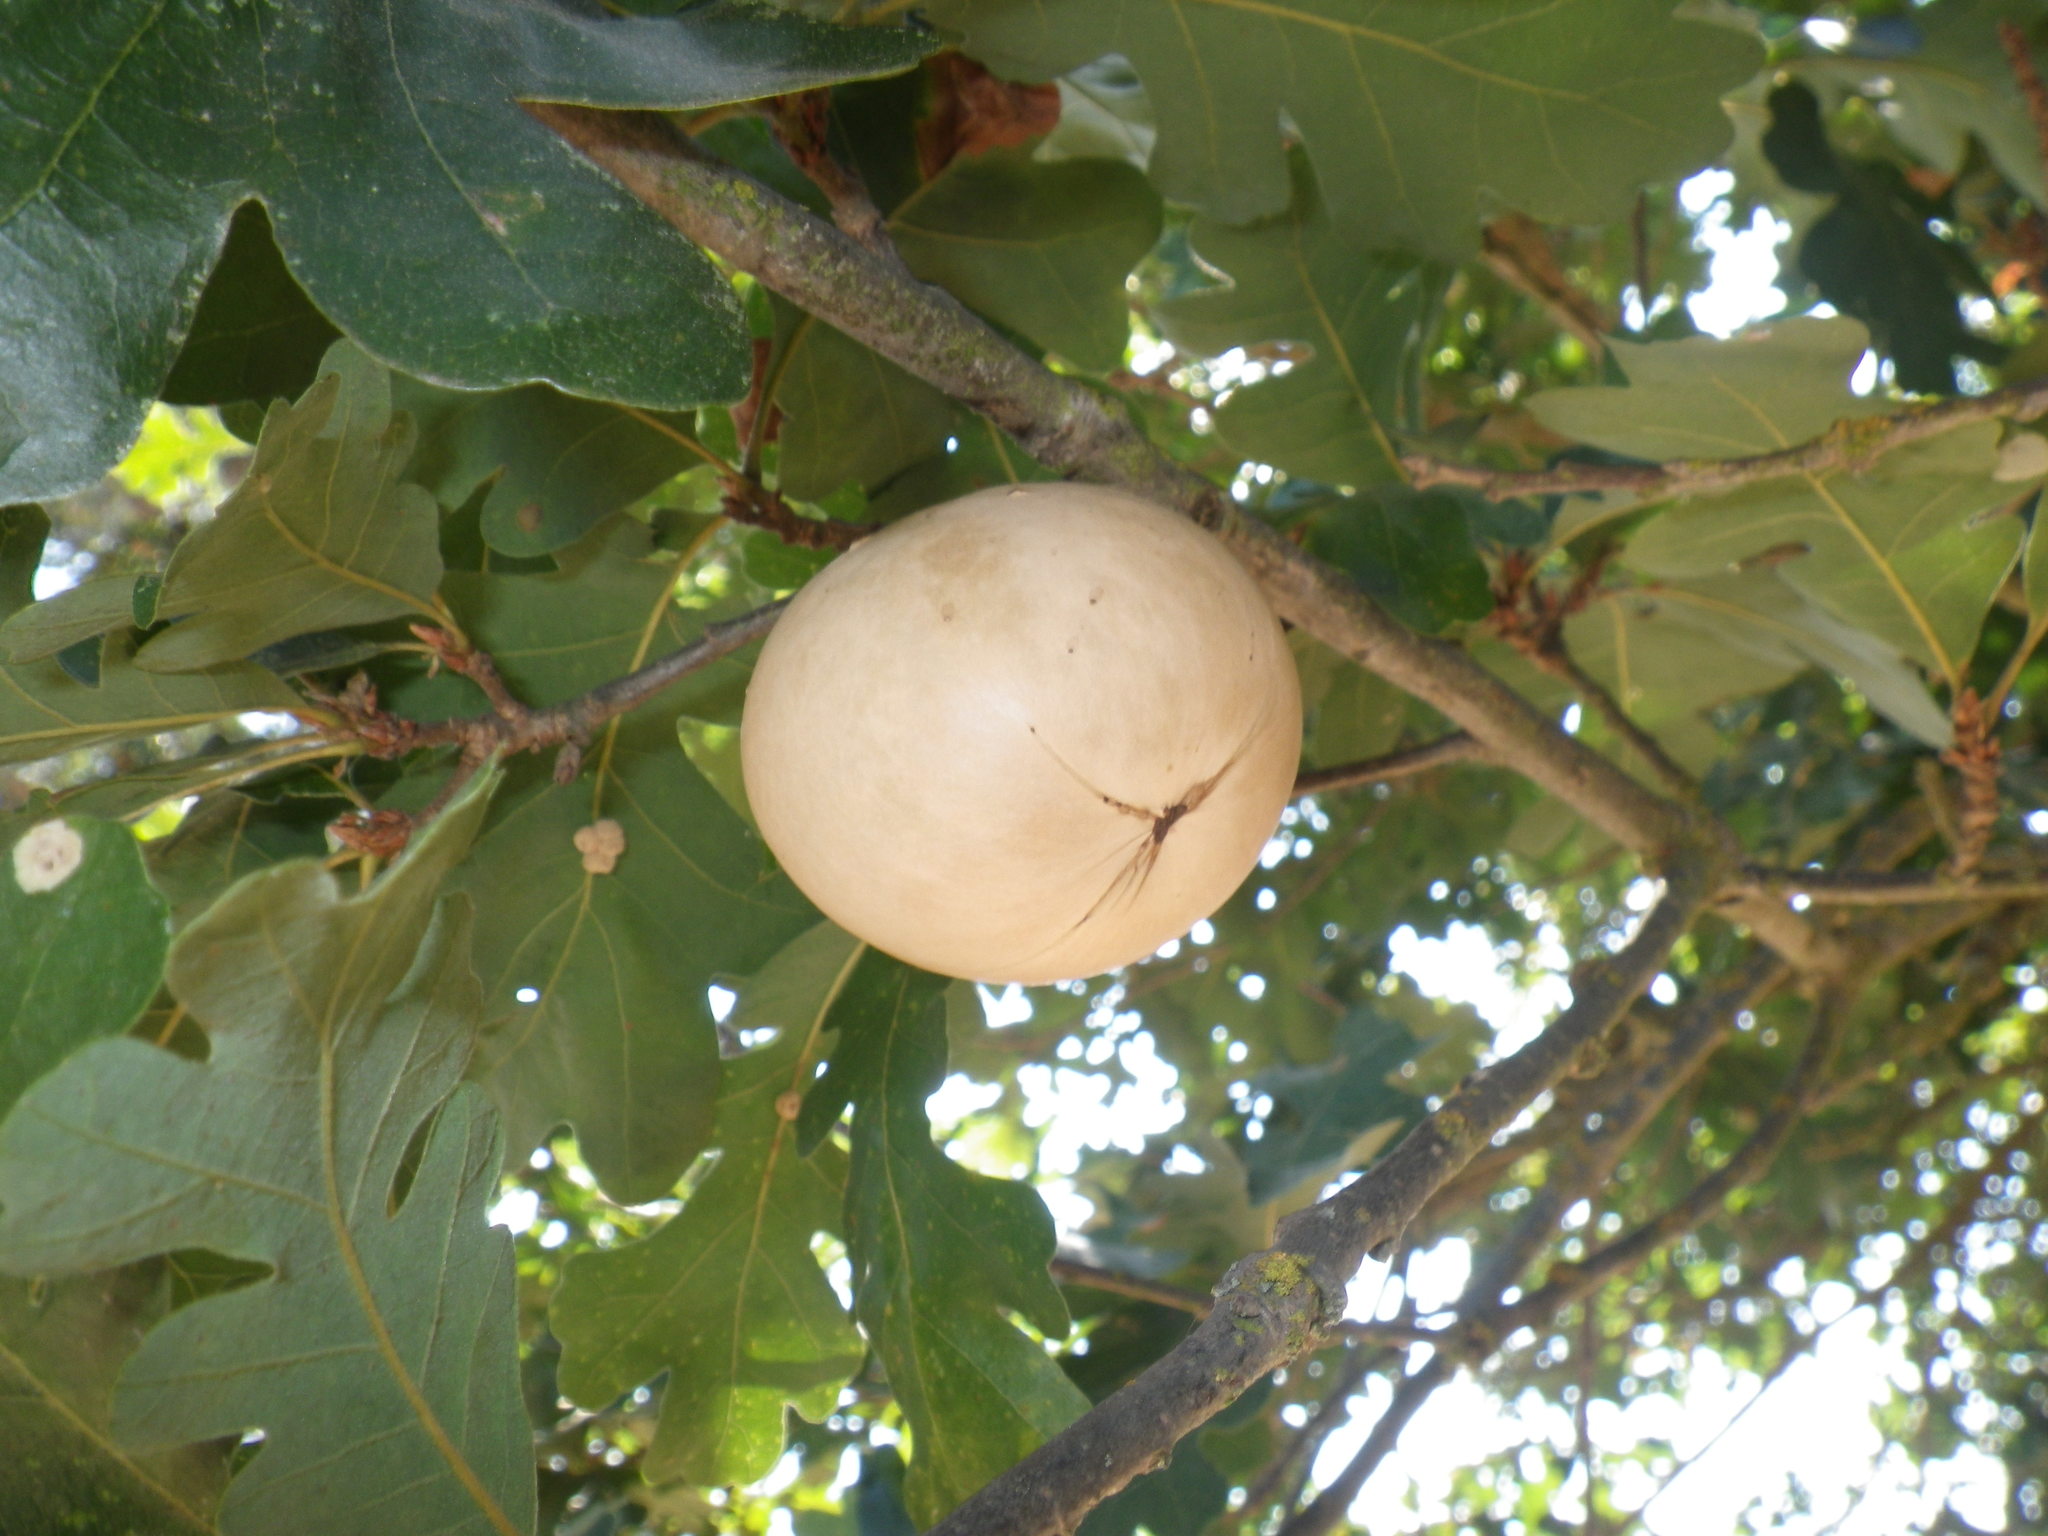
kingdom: Animalia
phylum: Arthropoda
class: Insecta
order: Hymenoptera
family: Cynipidae
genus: Andricus
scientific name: Andricus quercuscalifornicus
